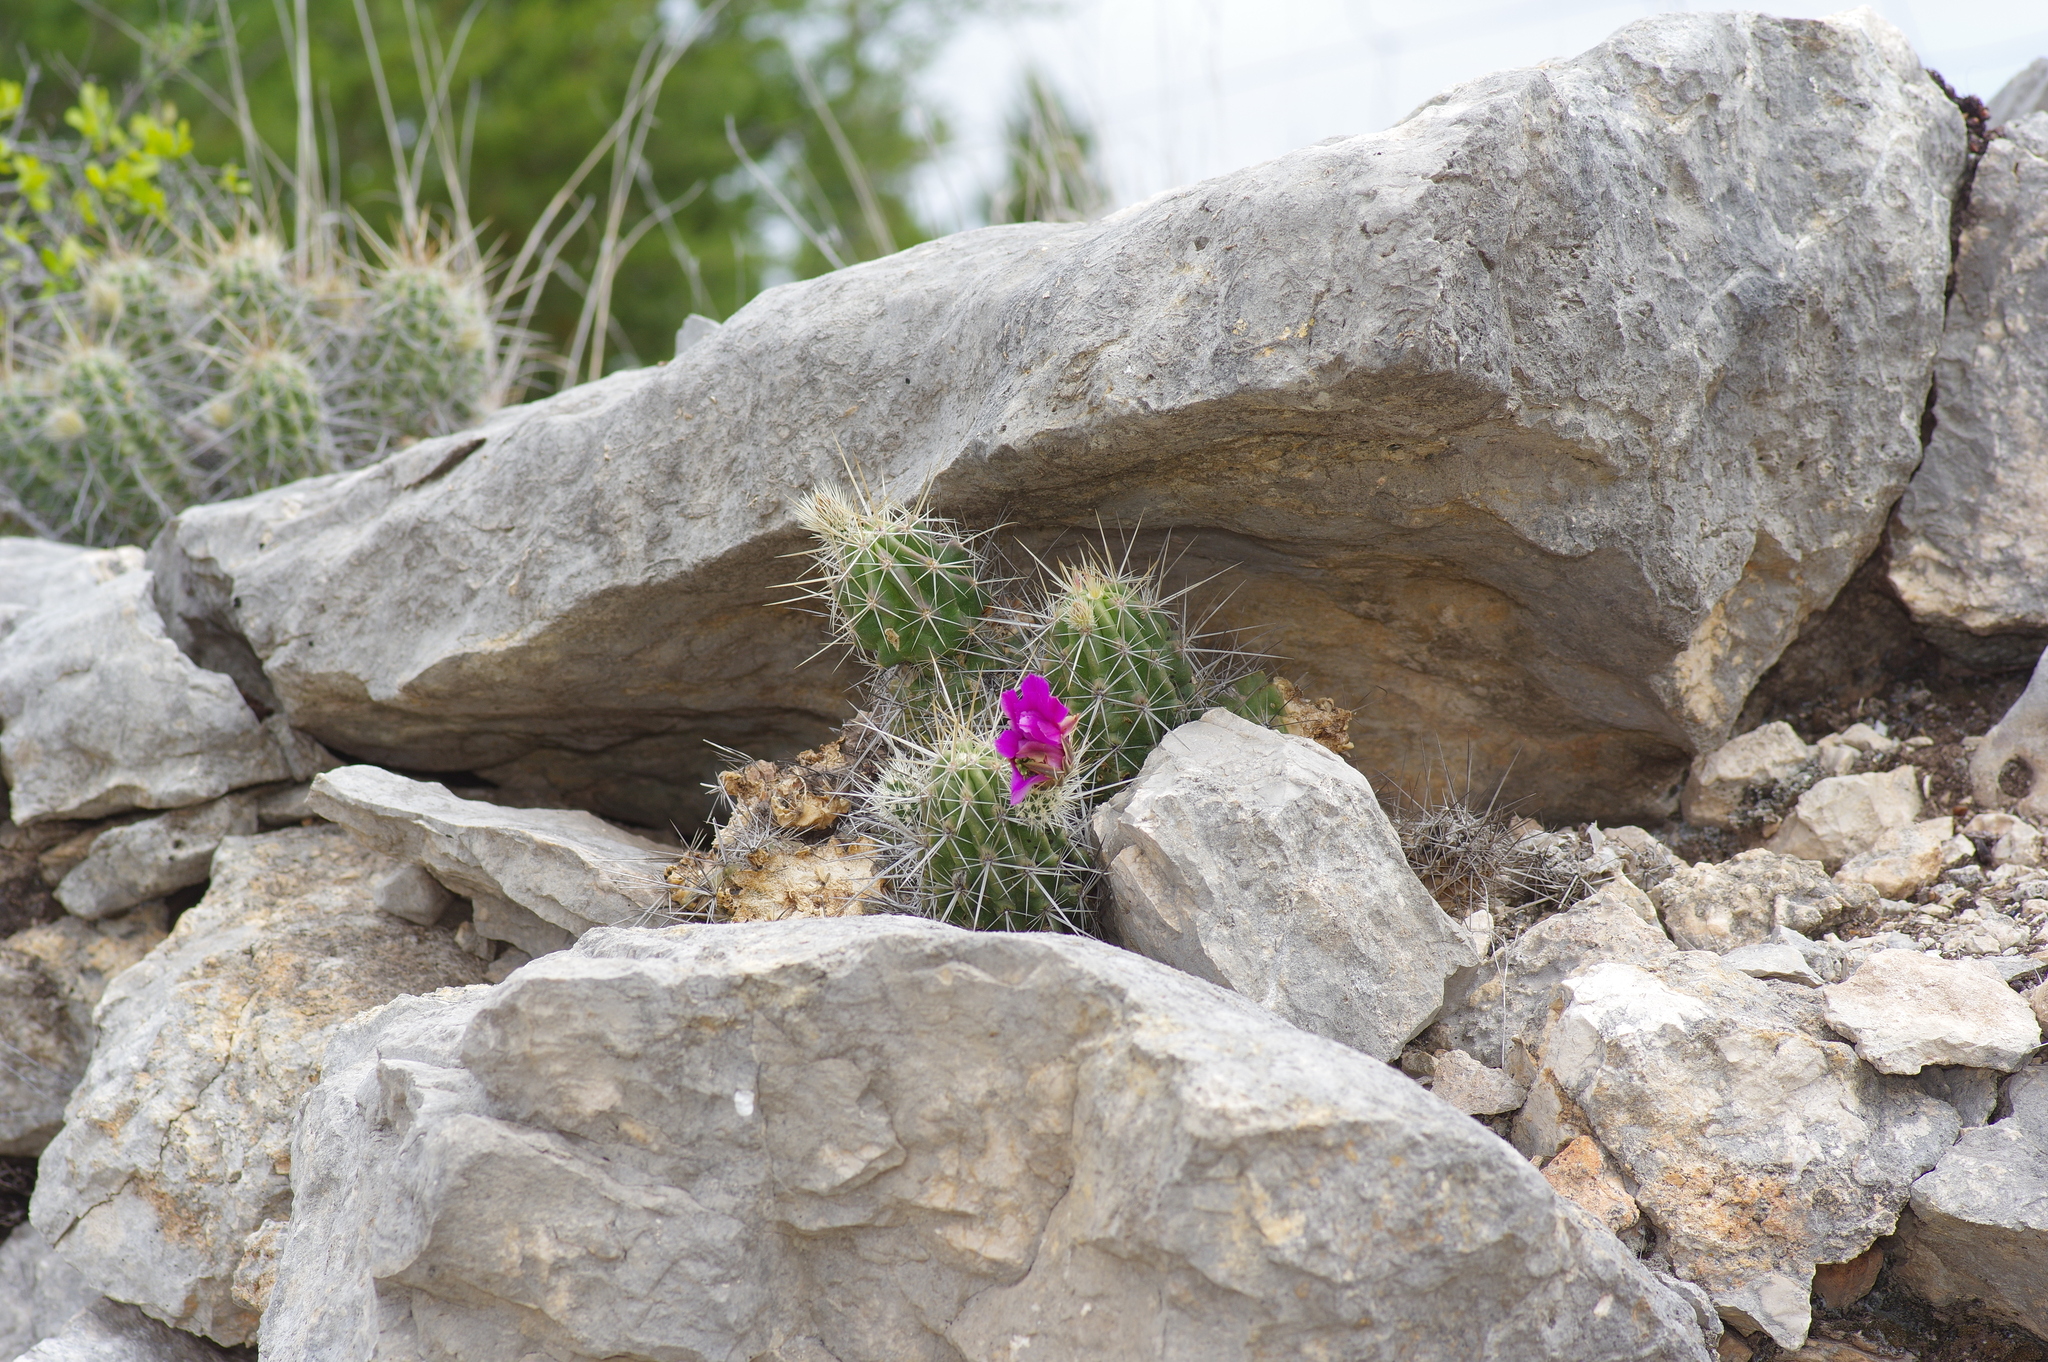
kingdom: Plantae
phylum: Tracheophyta
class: Magnoliopsida
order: Caryophyllales
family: Cactaceae
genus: Echinocereus
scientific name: Echinocereus enneacanthus
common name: Pitaya
